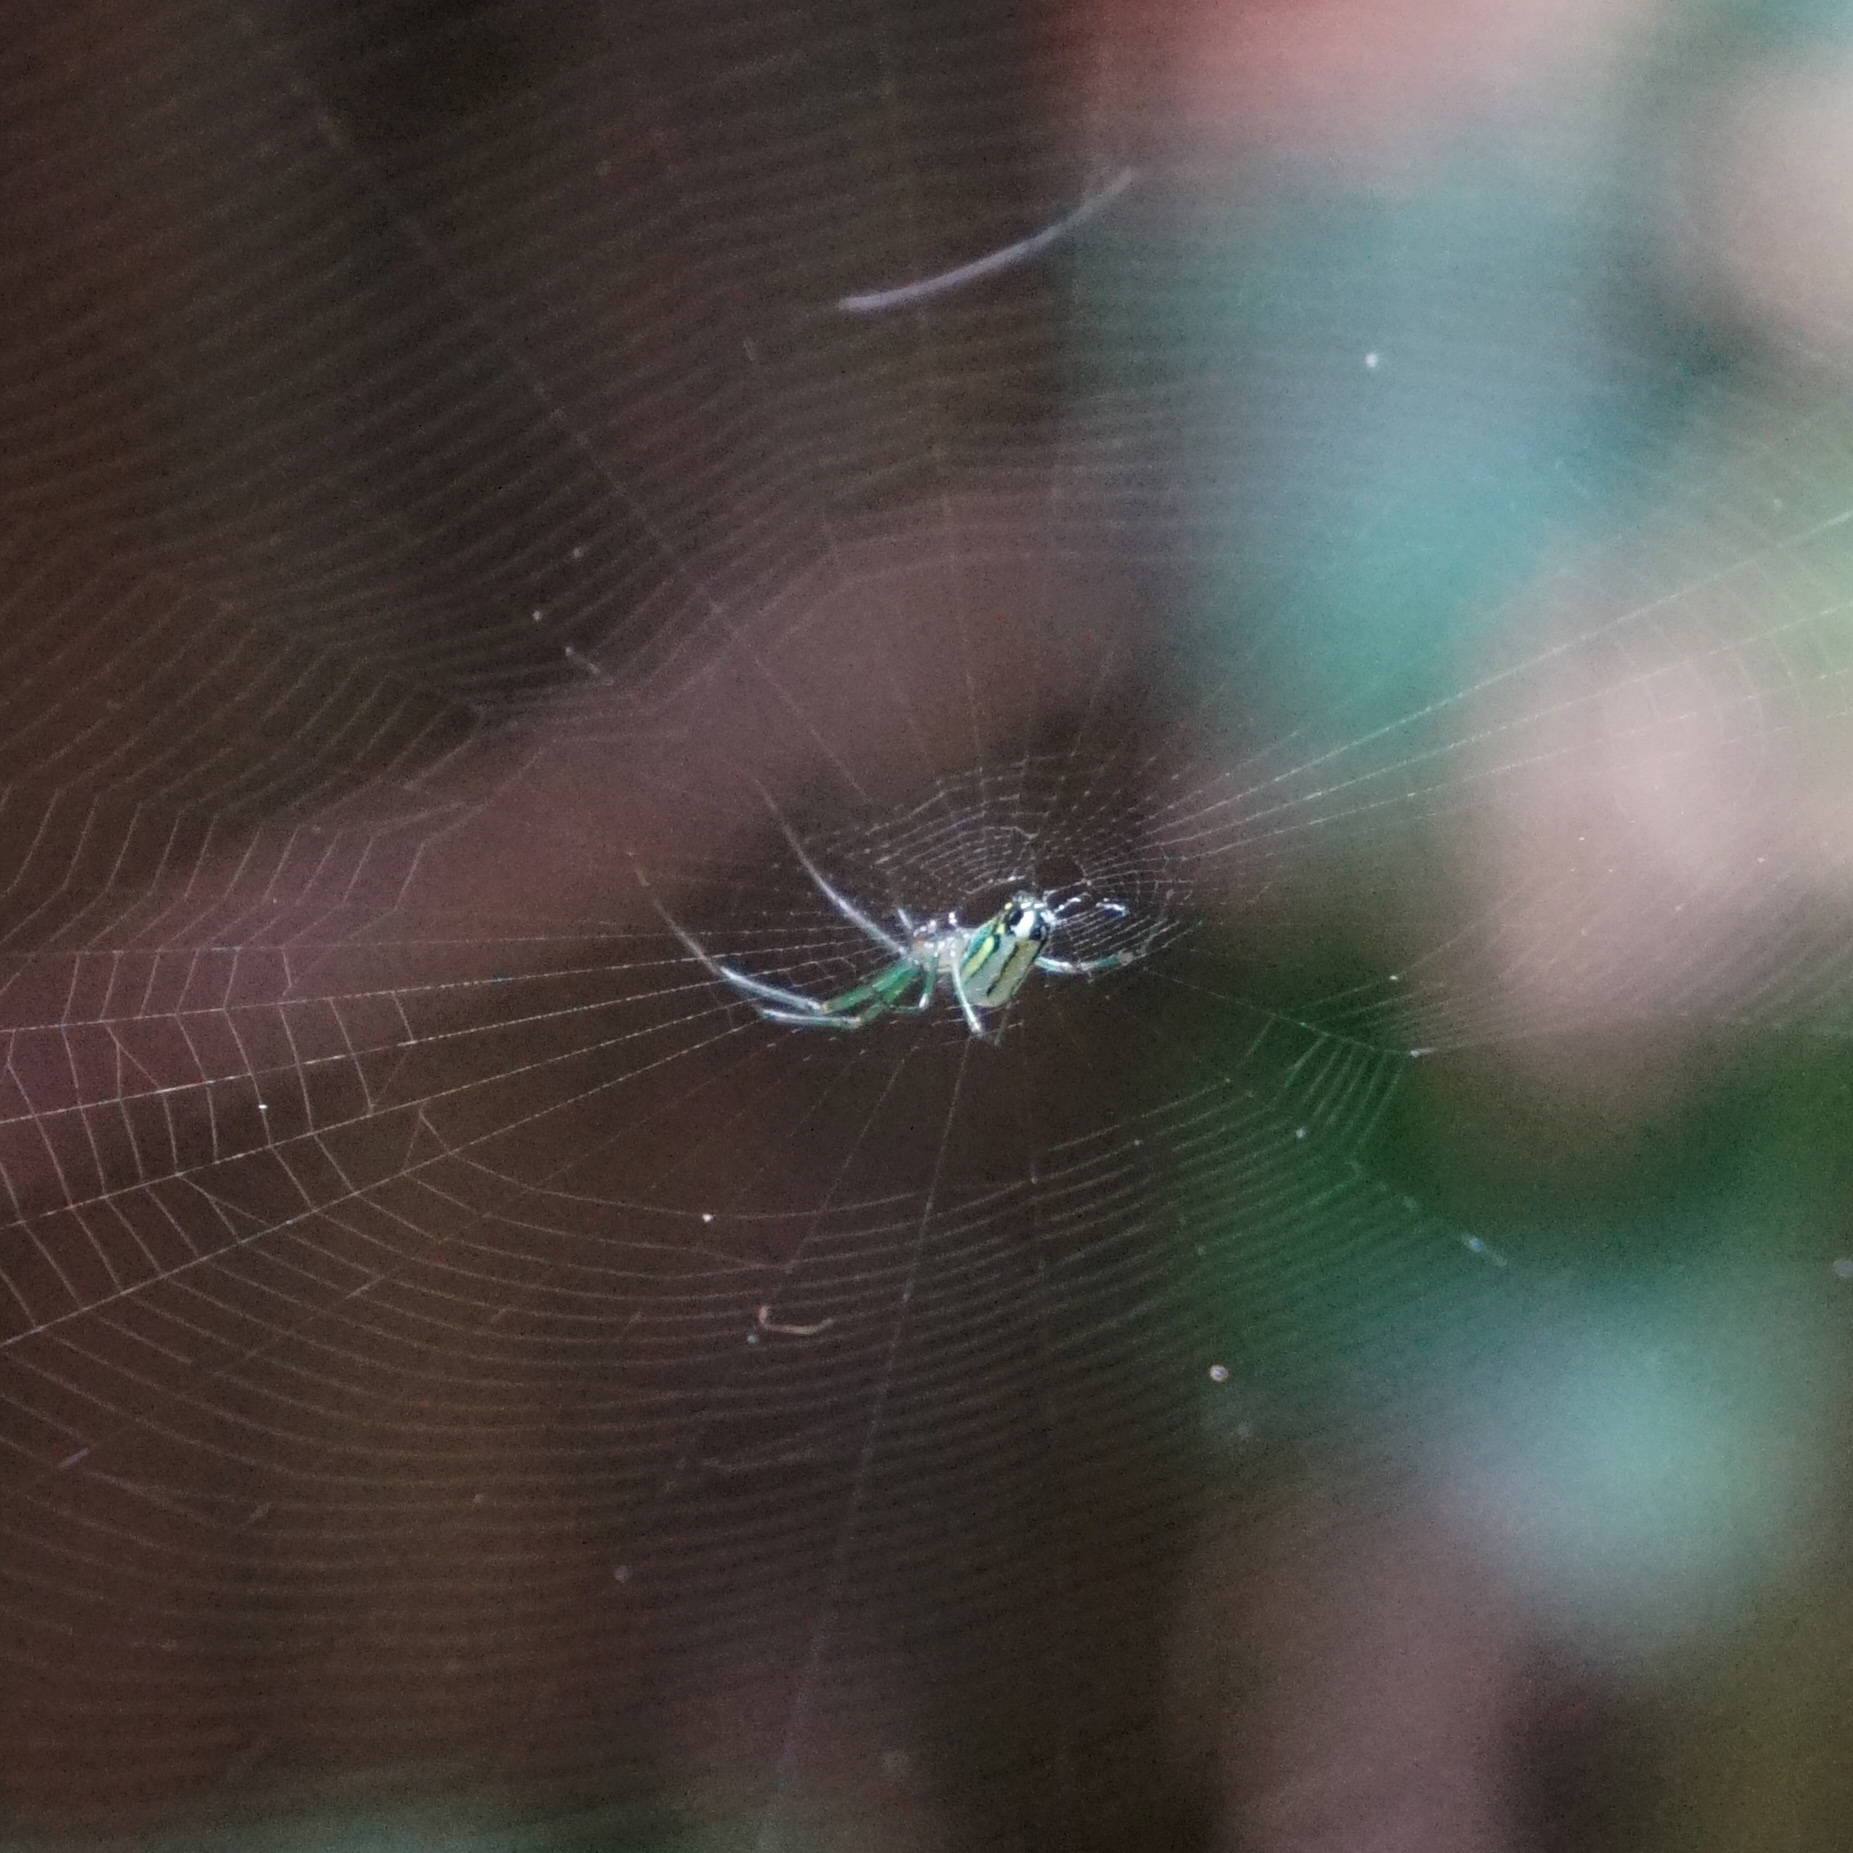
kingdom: Animalia
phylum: Arthropoda
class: Arachnida
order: Araneae
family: Tetragnathidae
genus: Leucauge
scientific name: Leucauge venusta
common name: Longjawed orb weavers
